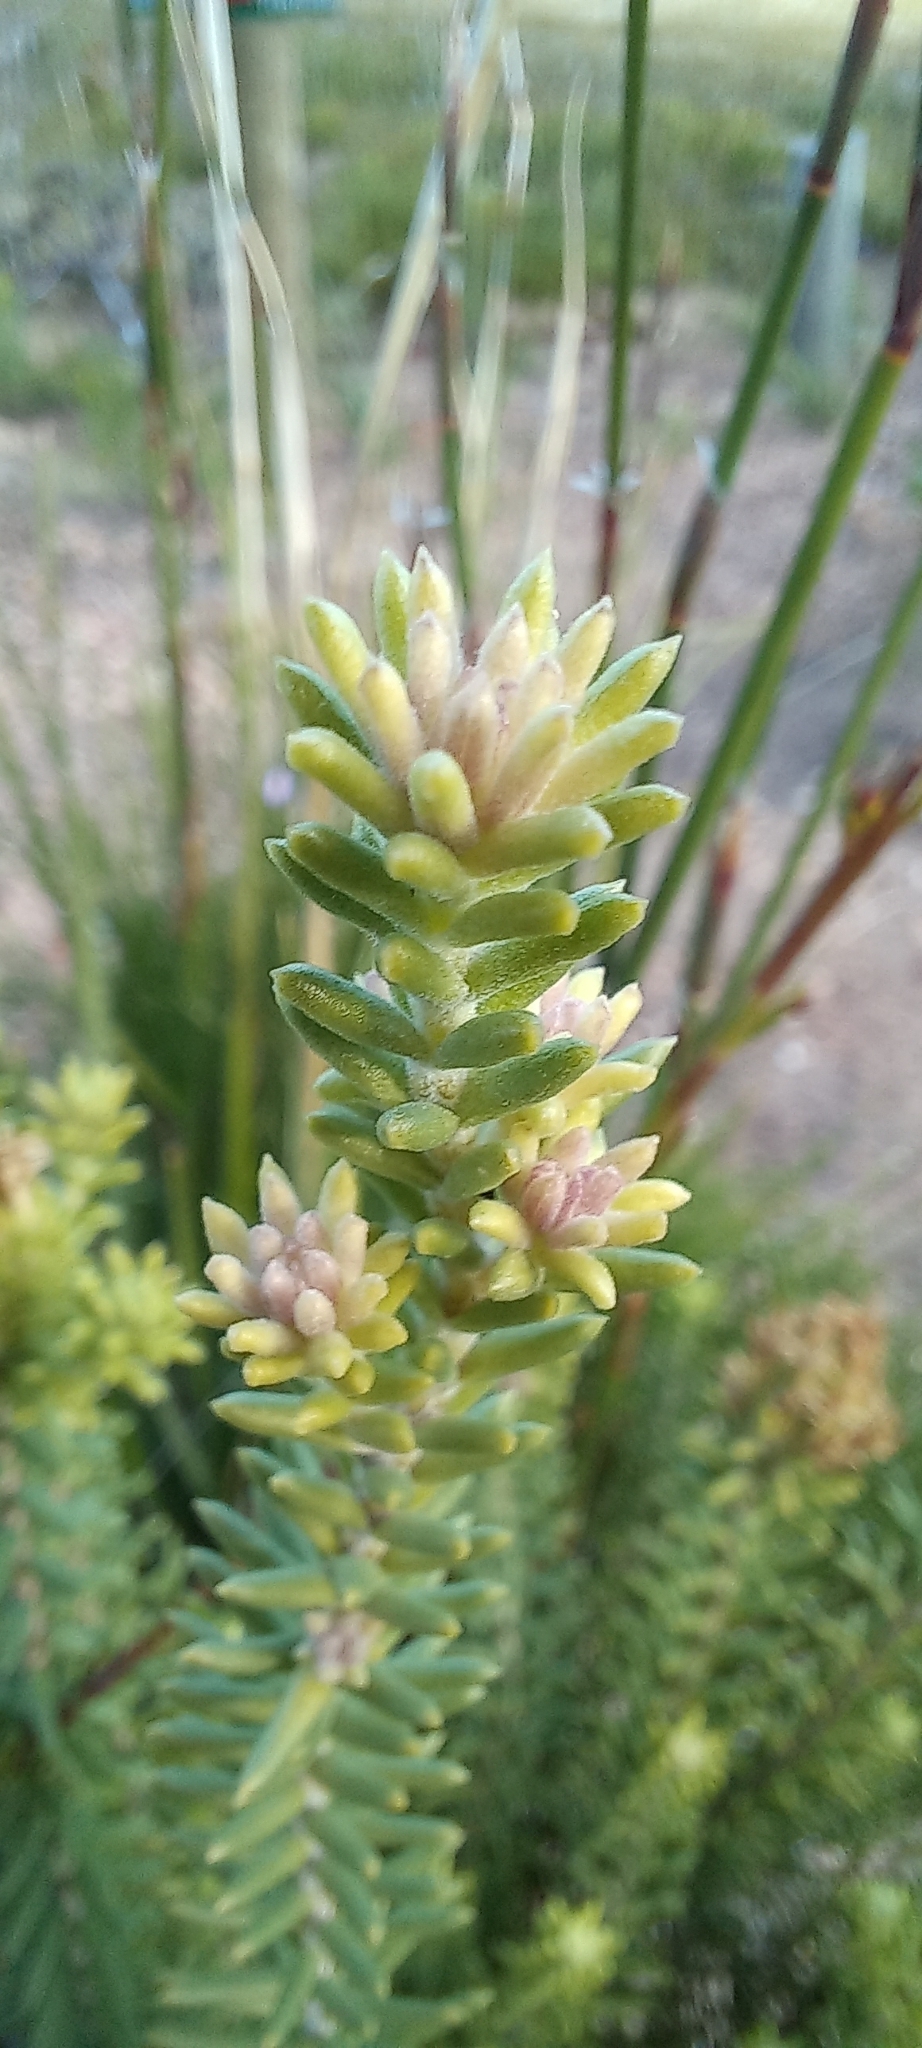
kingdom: Plantae
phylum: Tracheophyta
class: Magnoliopsida
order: Lamiales
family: Stilbaceae
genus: Campylostachys
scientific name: Campylostachys cernua
